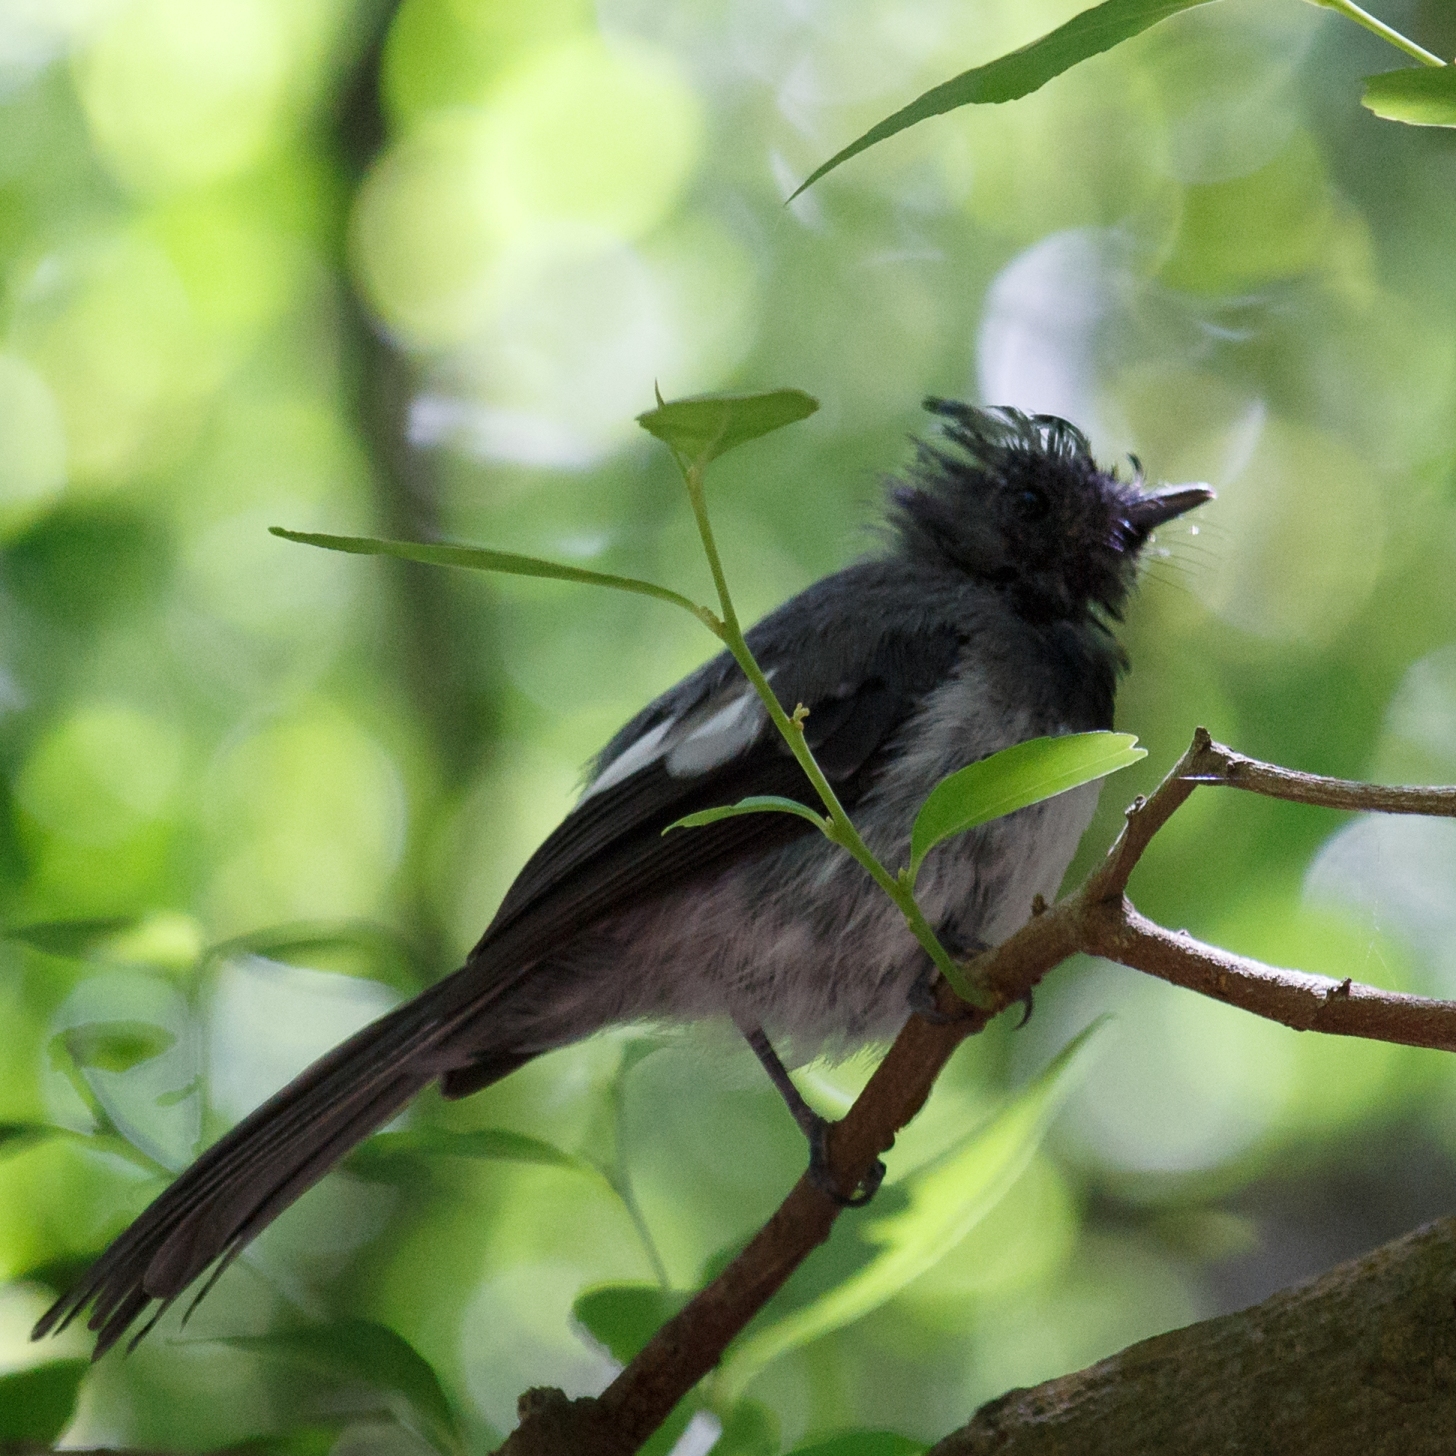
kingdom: Animalia
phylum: Chordata
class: Aves
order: Passeriformes
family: Monarchidae
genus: Trochocercus
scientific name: Trochocercus cyanomelas
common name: Blue-mantled crested flycatcher
